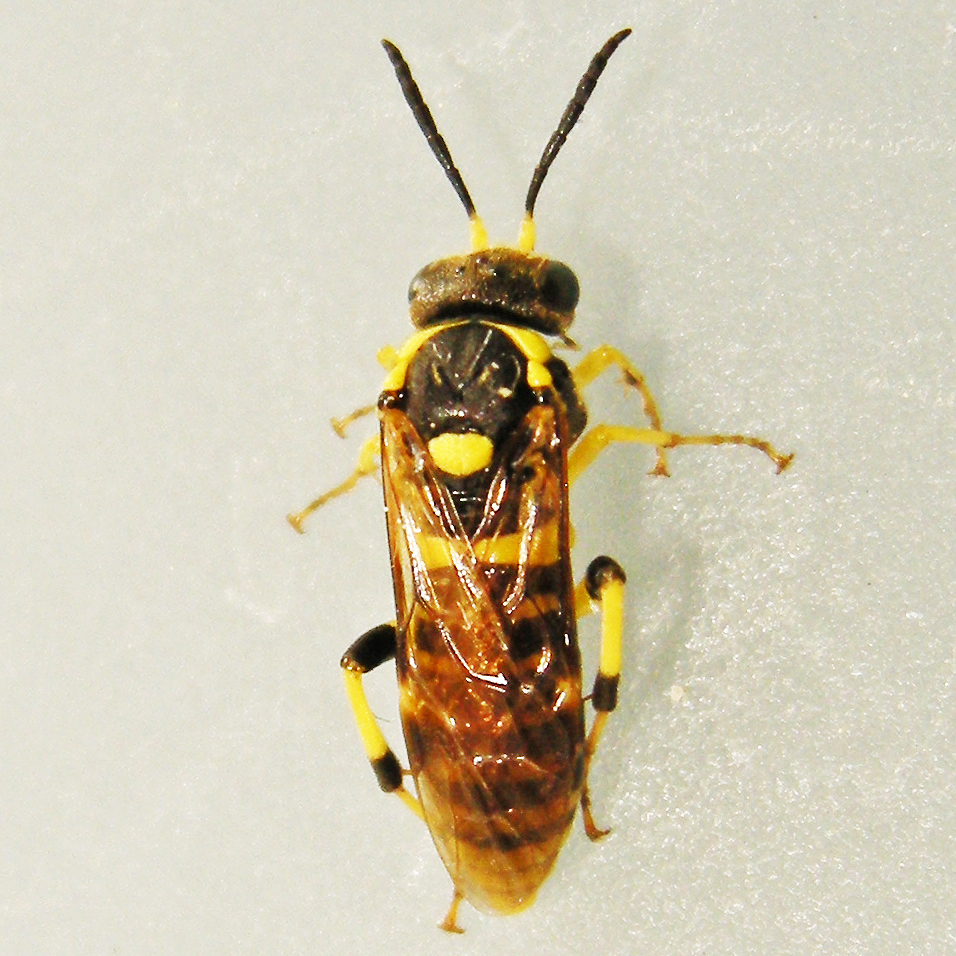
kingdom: Animalia
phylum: Arthropoda
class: Insecta
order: Hymenoptera
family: Tenthredinidae
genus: Macrophya
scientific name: Macrophya
